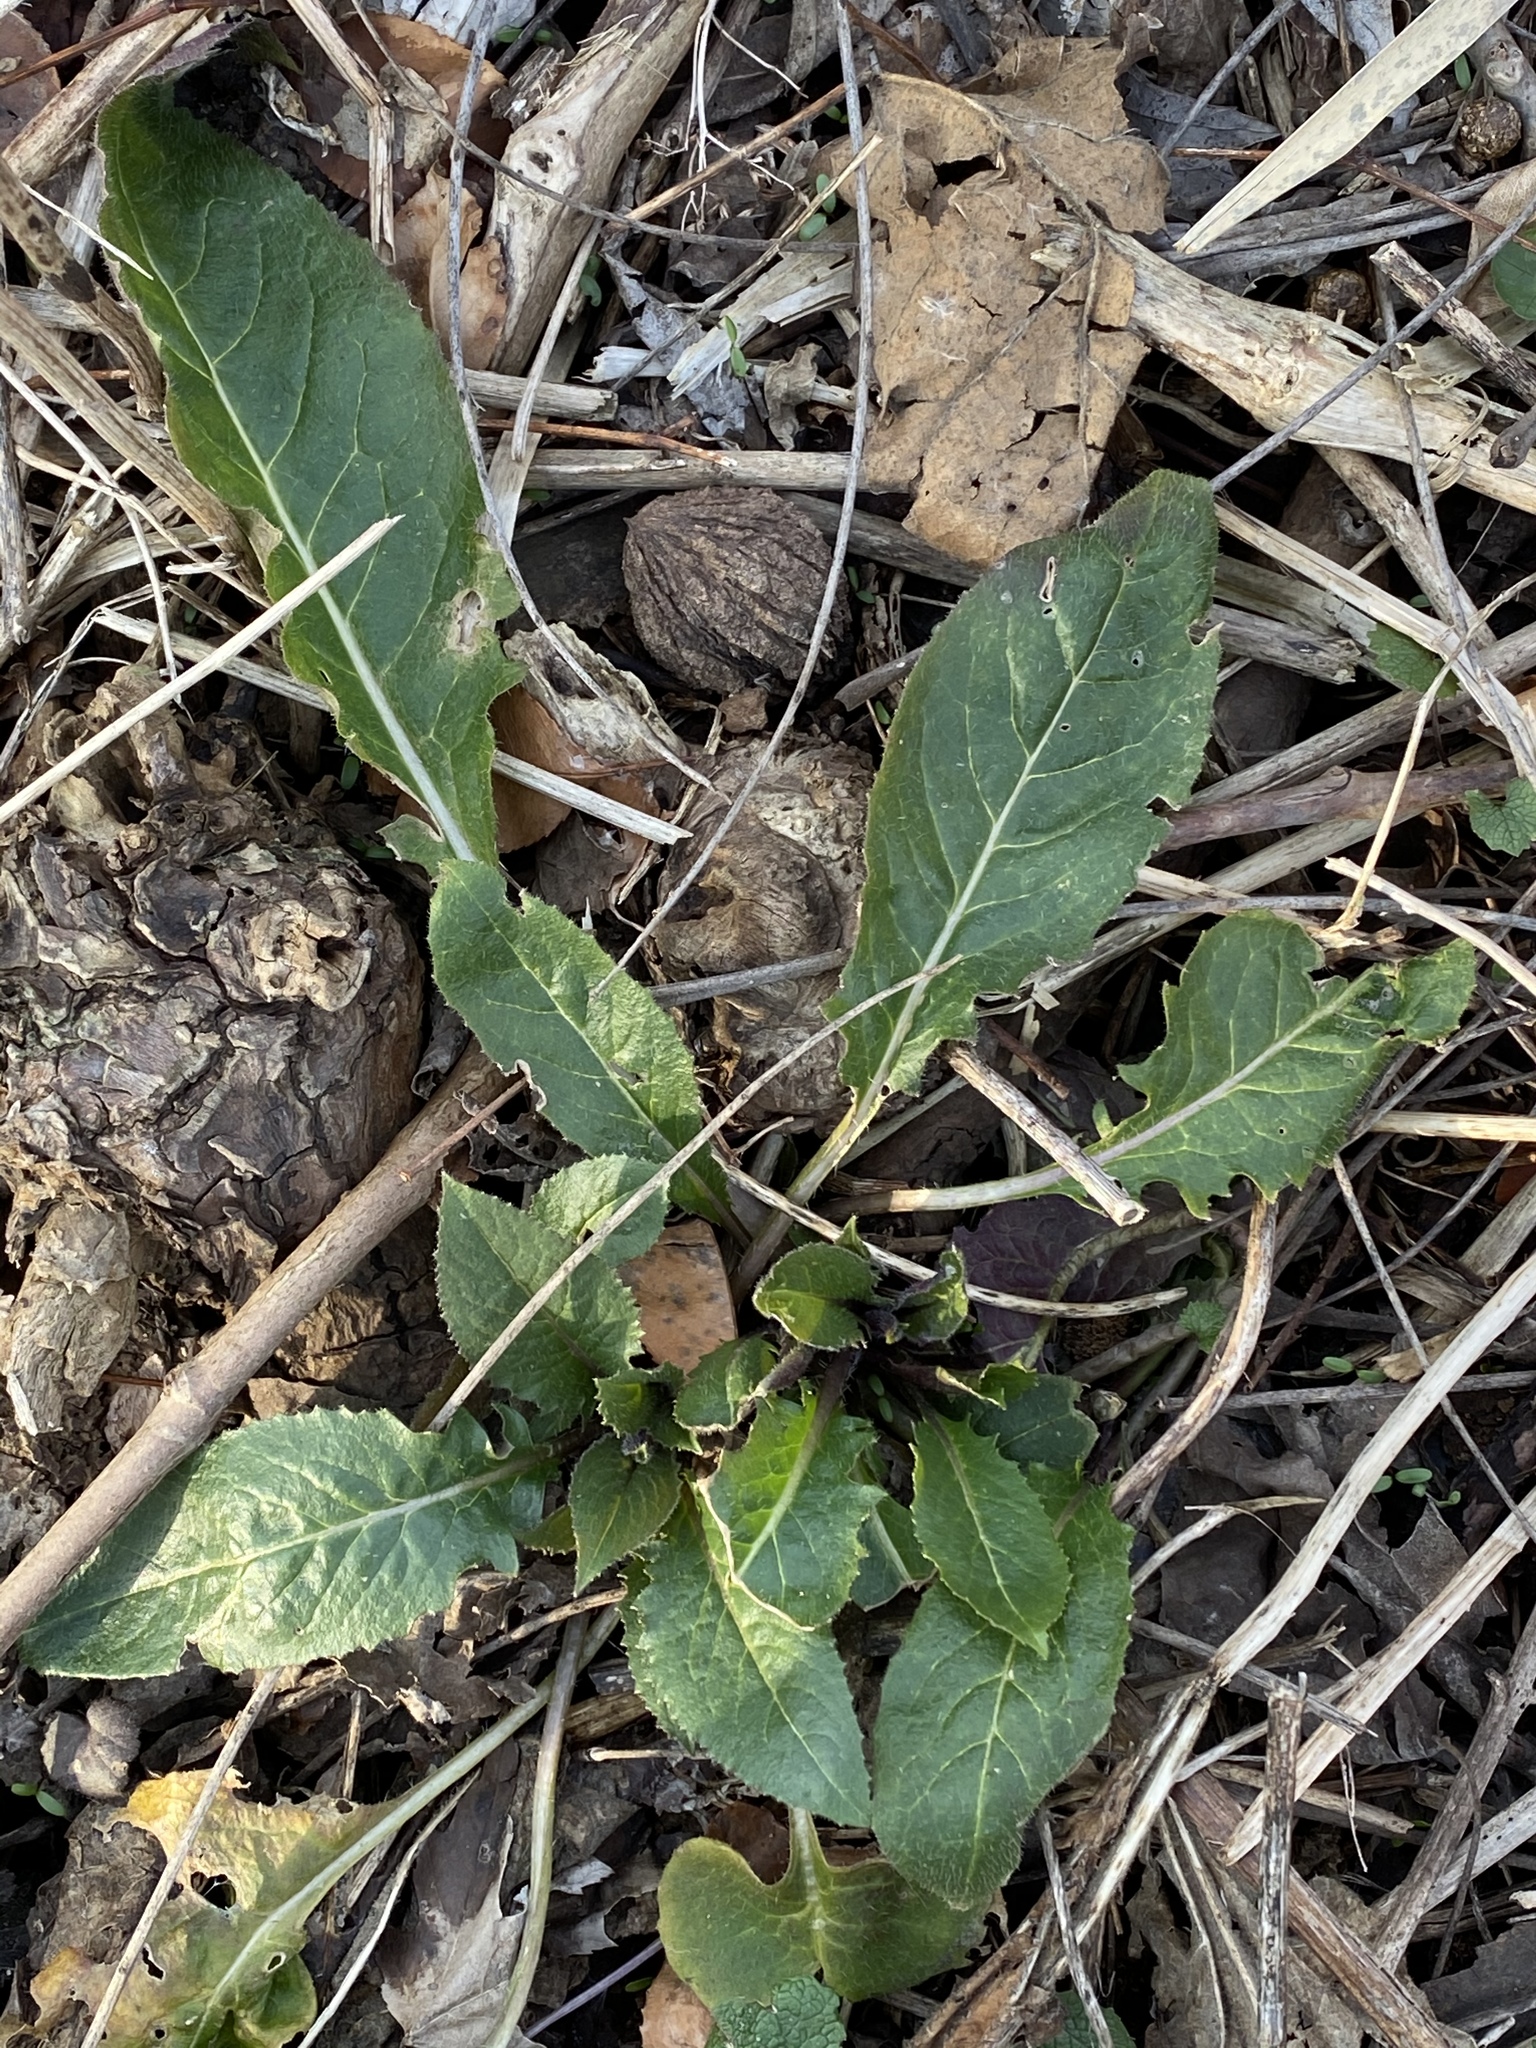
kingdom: Plantae
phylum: Tracheophyta
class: Magnoliopsida
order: Brassicales
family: Brassicaceae
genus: Hesperis
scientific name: Hesperis matronalis
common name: Dame's-violet
